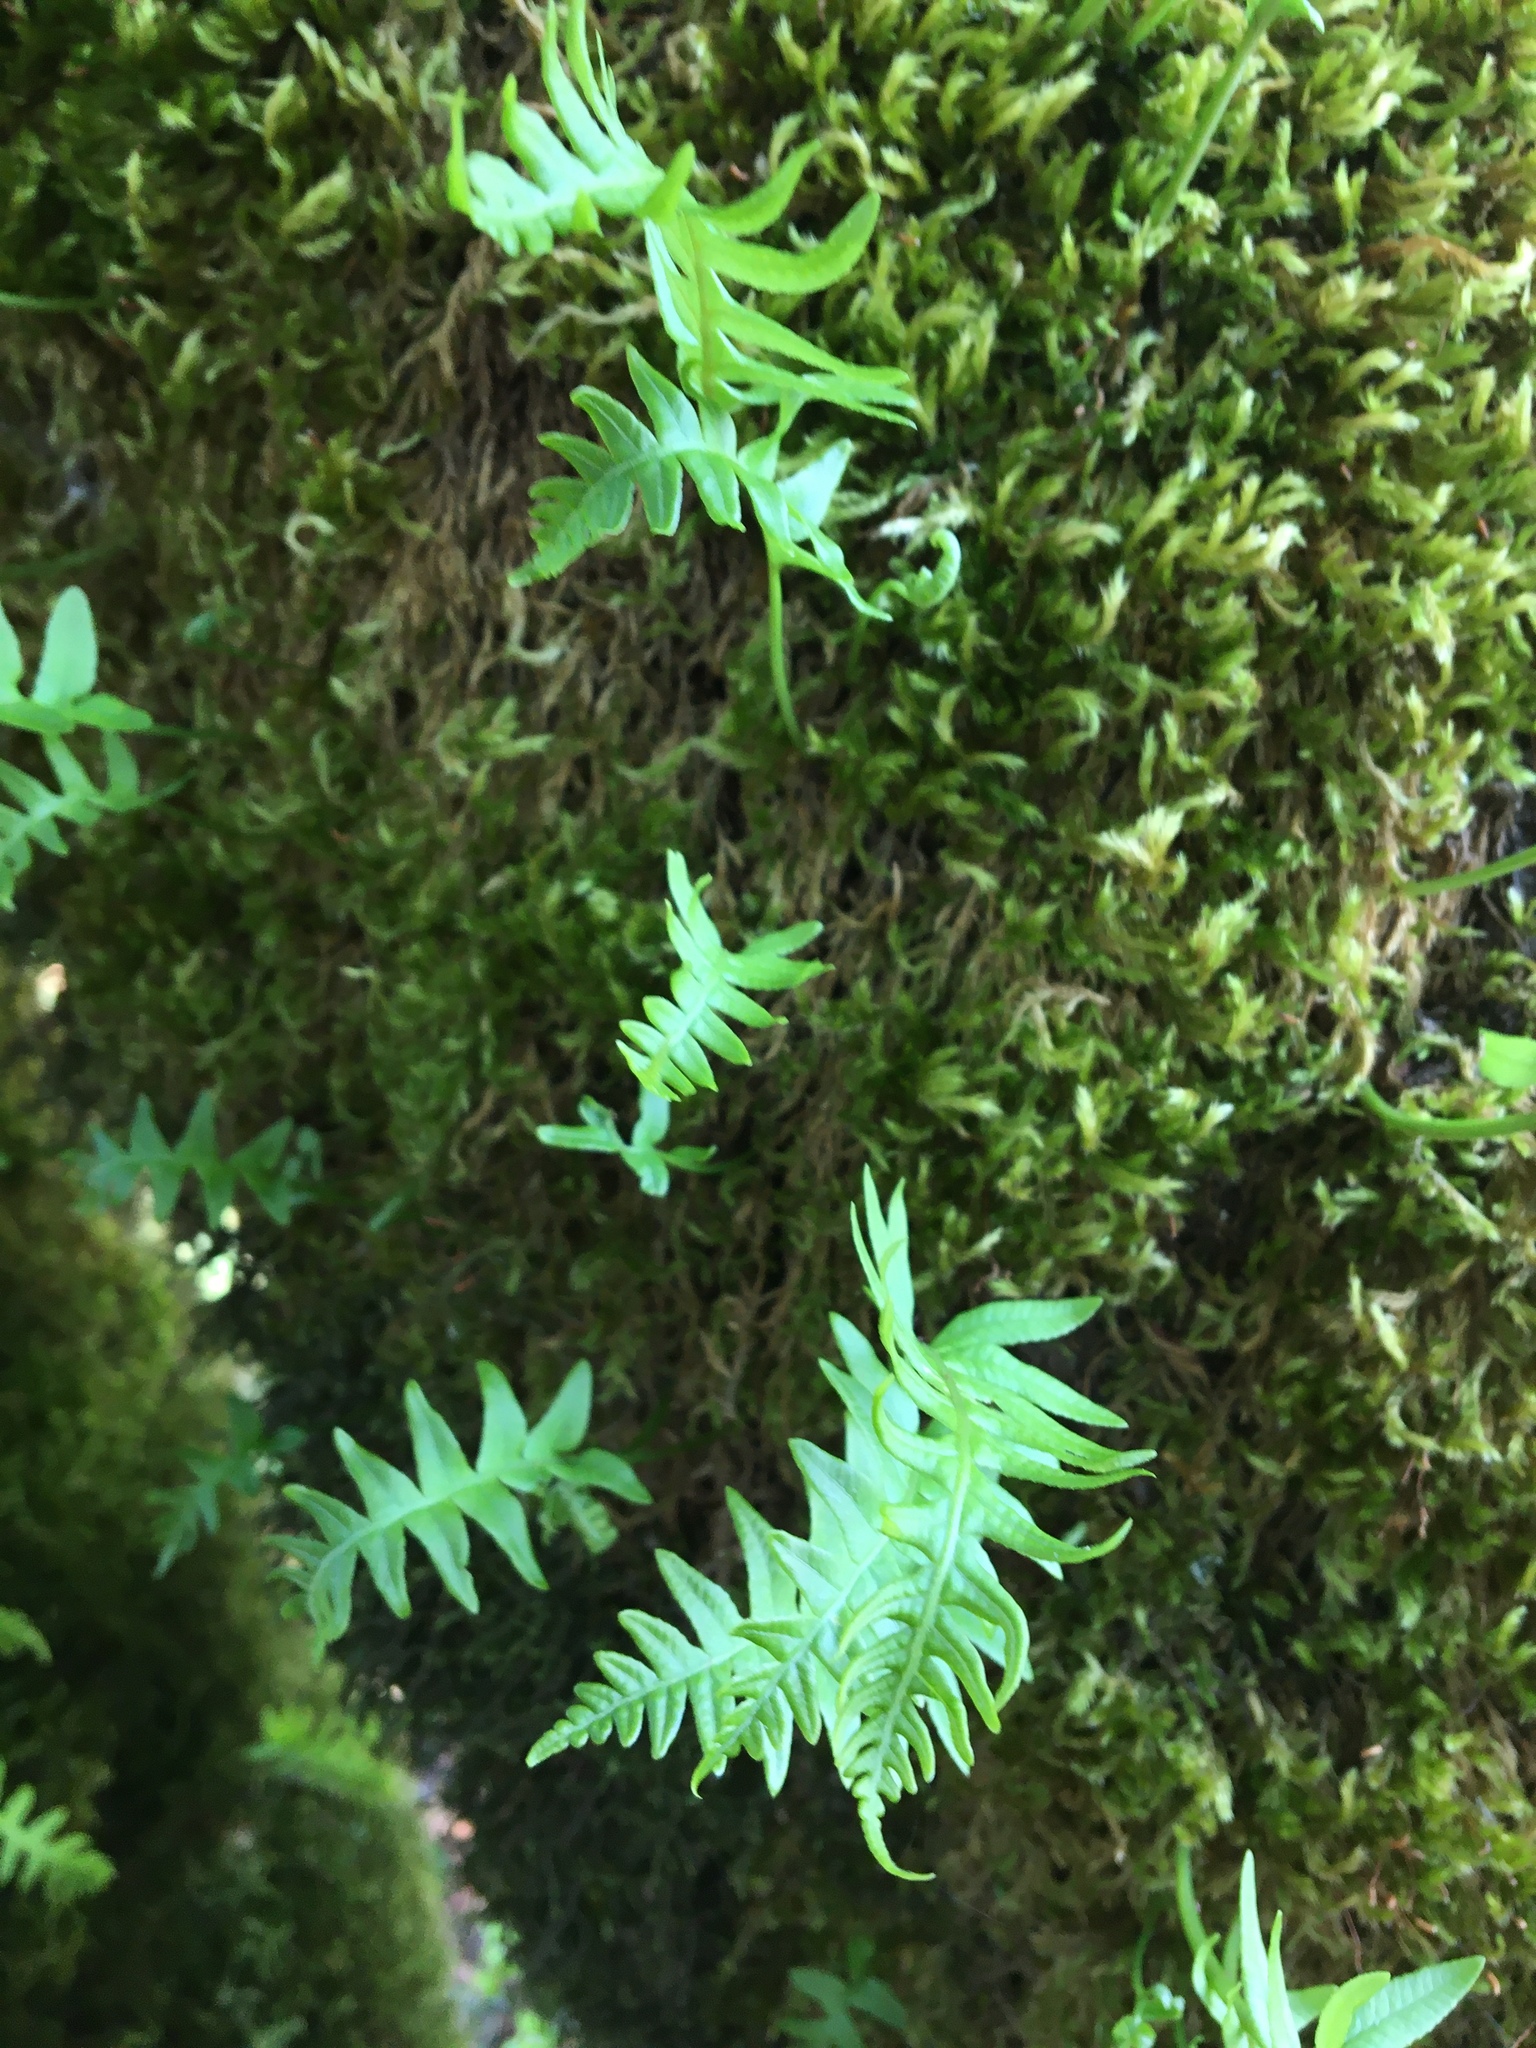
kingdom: Plantae
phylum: Tracheophyta
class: Polypodiopsida
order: Polypodiales
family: Polypodiaceae
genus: Polypodium
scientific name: Polypodium glycyrrhiza
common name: Licorice fern
